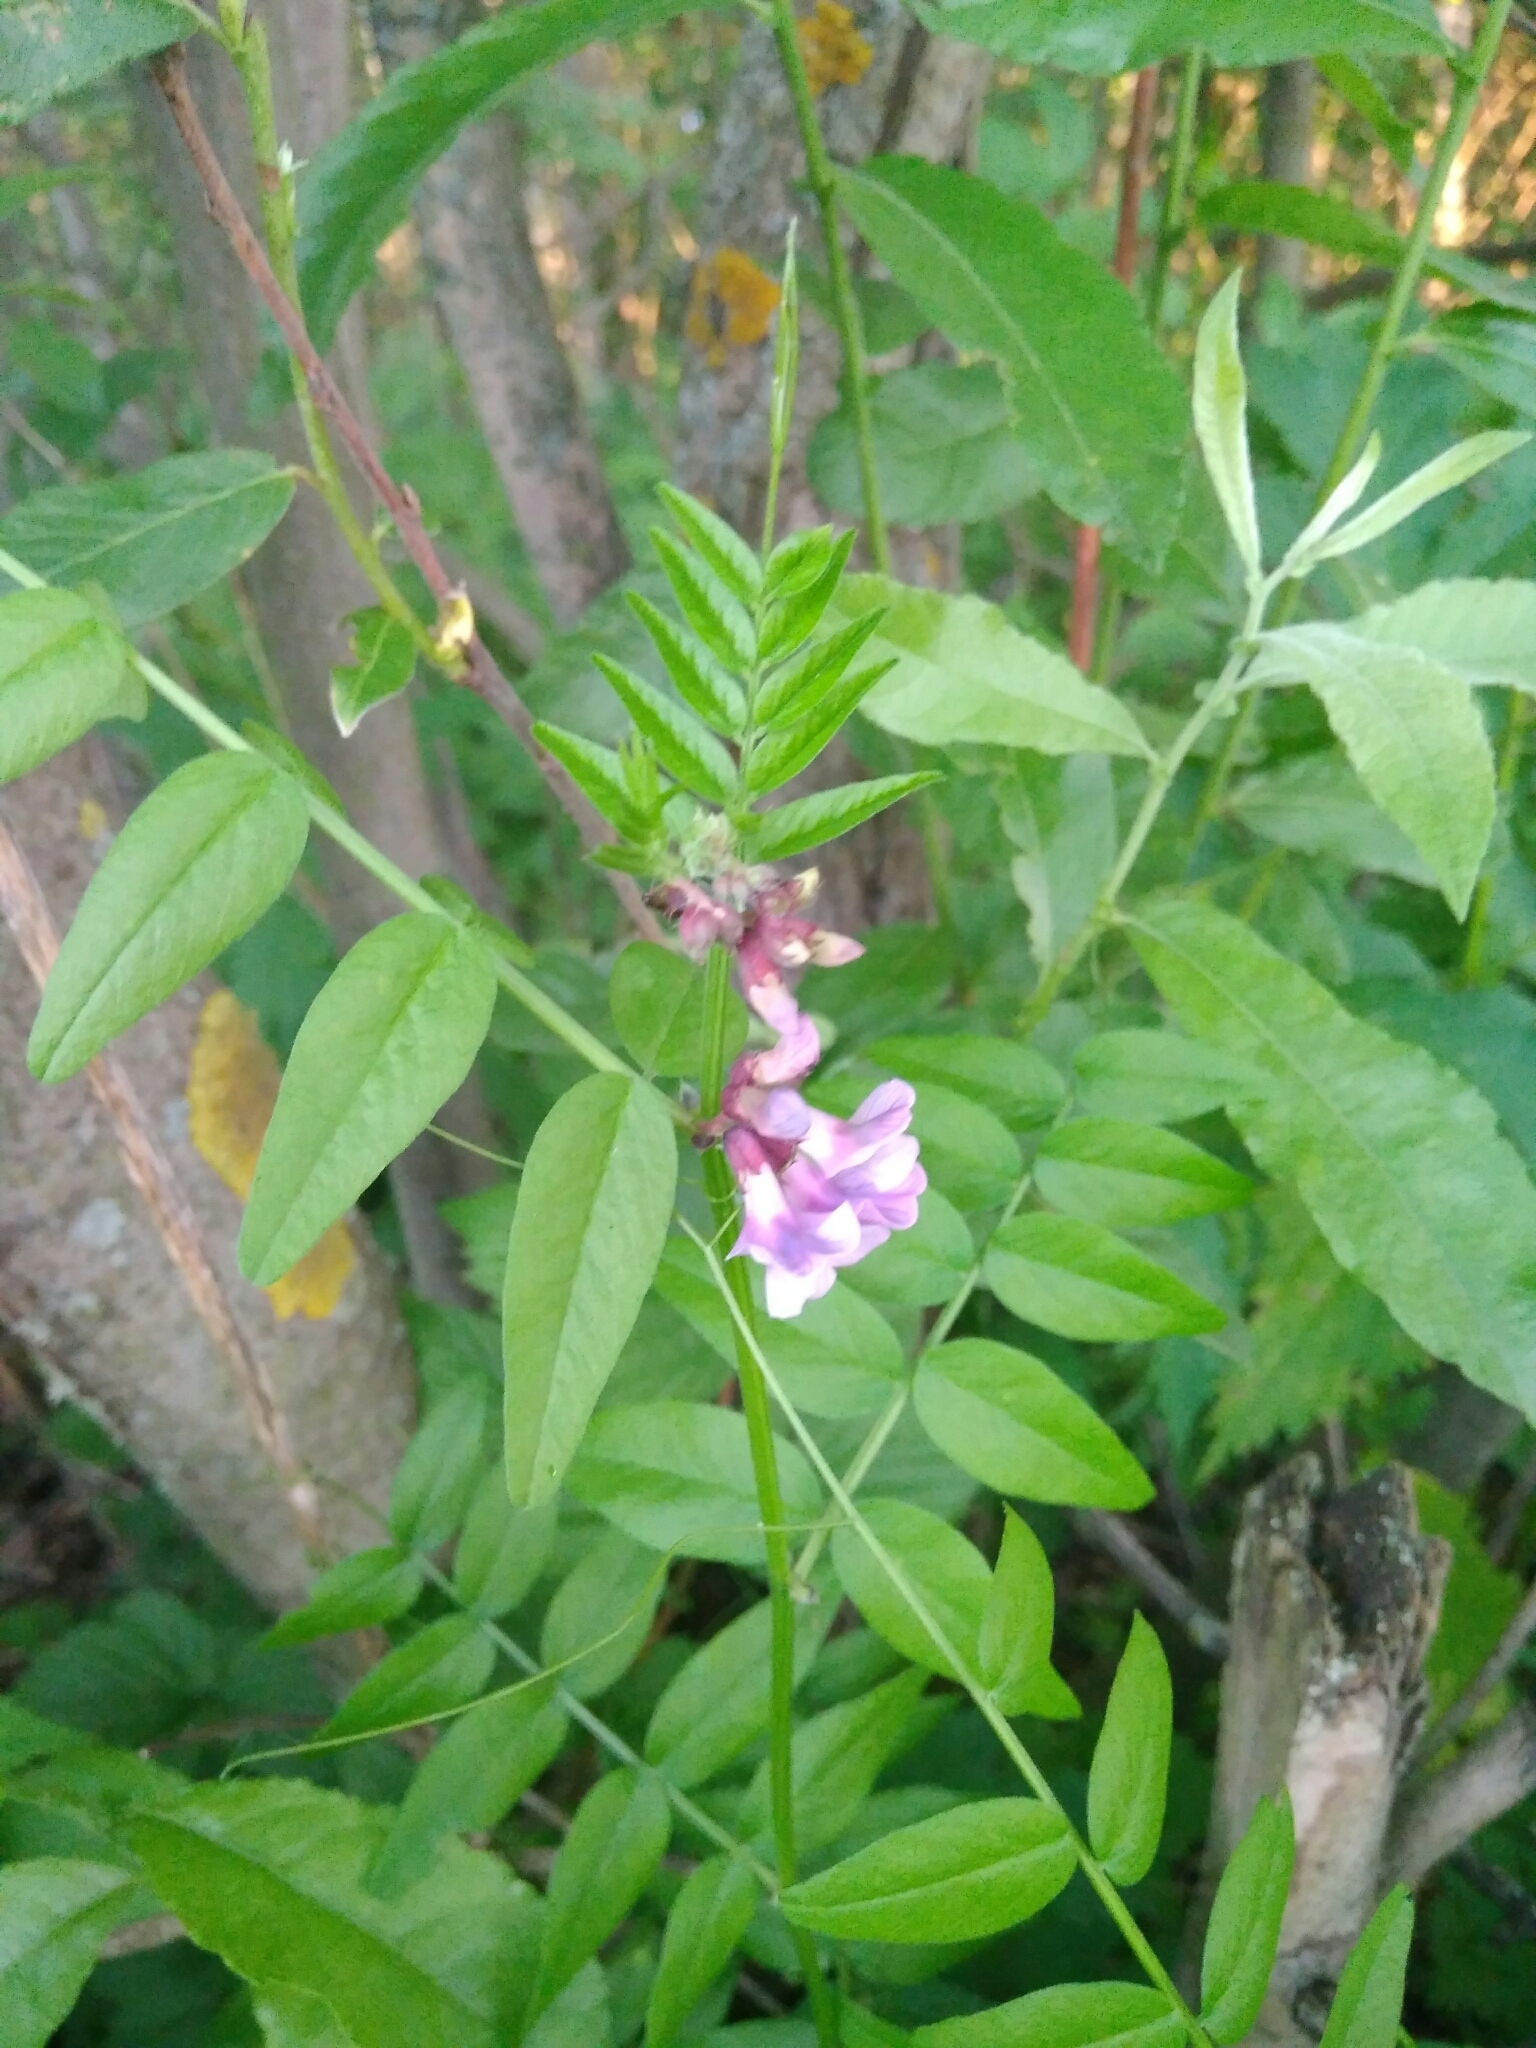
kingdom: Plantae
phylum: Tracheophyta
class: Magnoliopsida
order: Fabales
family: Fabaceae
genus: Vicia
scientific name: Vicia sepium
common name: Bush vetch
